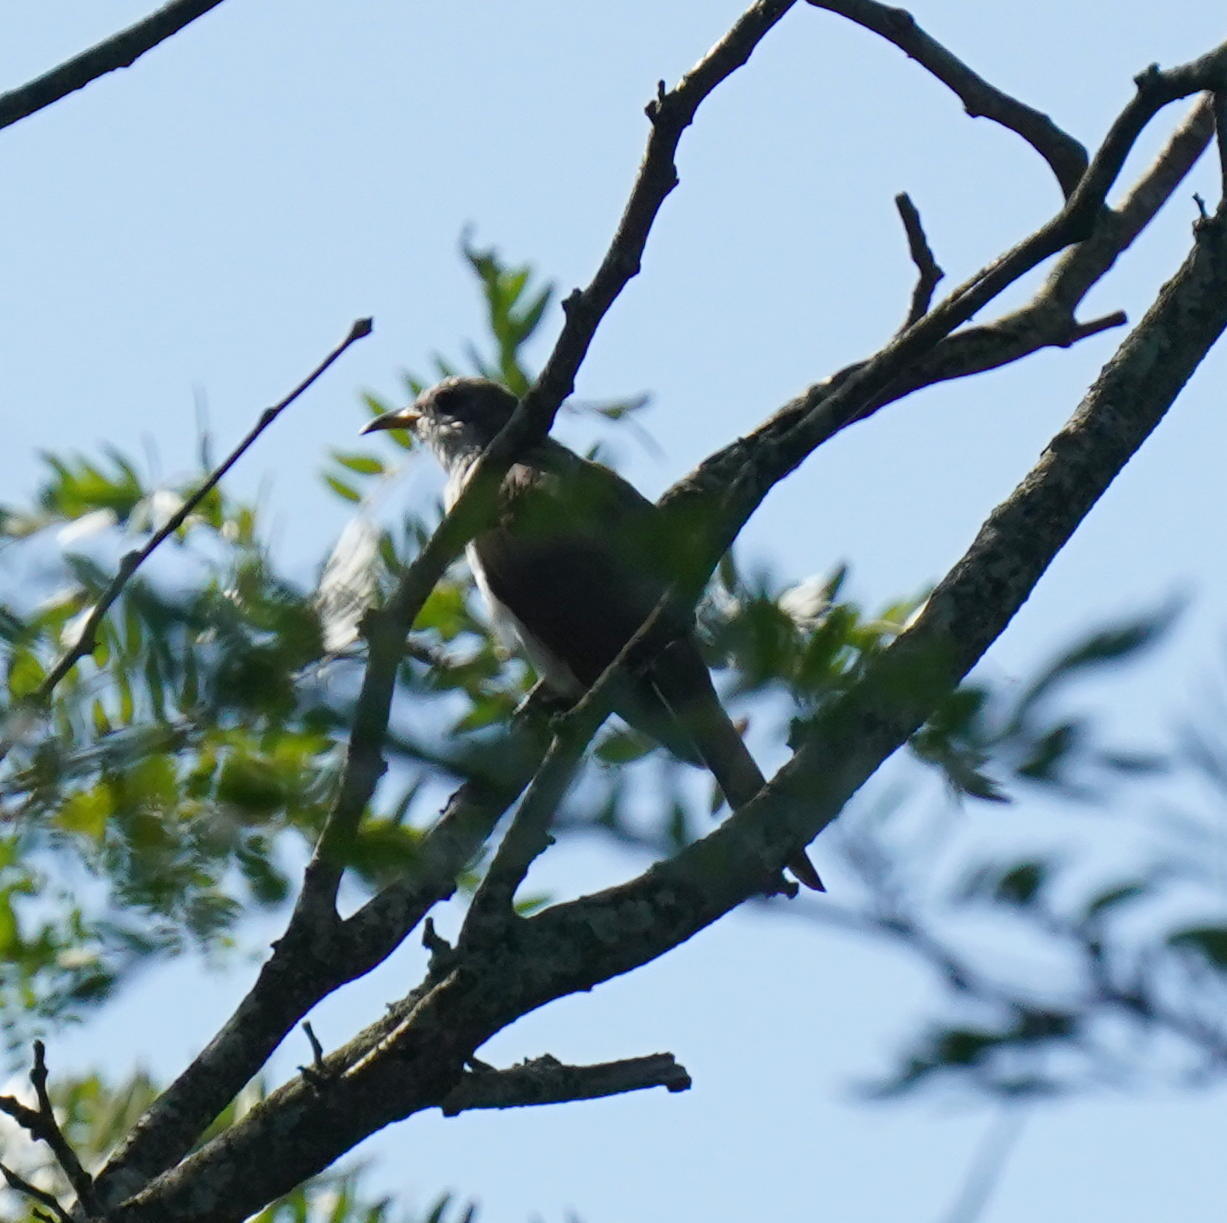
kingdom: Animalia
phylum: Chordata
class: Aves
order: Cuculiformes
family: Cuculidae
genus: Coccyzus
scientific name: Coccyzus americanus
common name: Yellow-billed cuckoo
